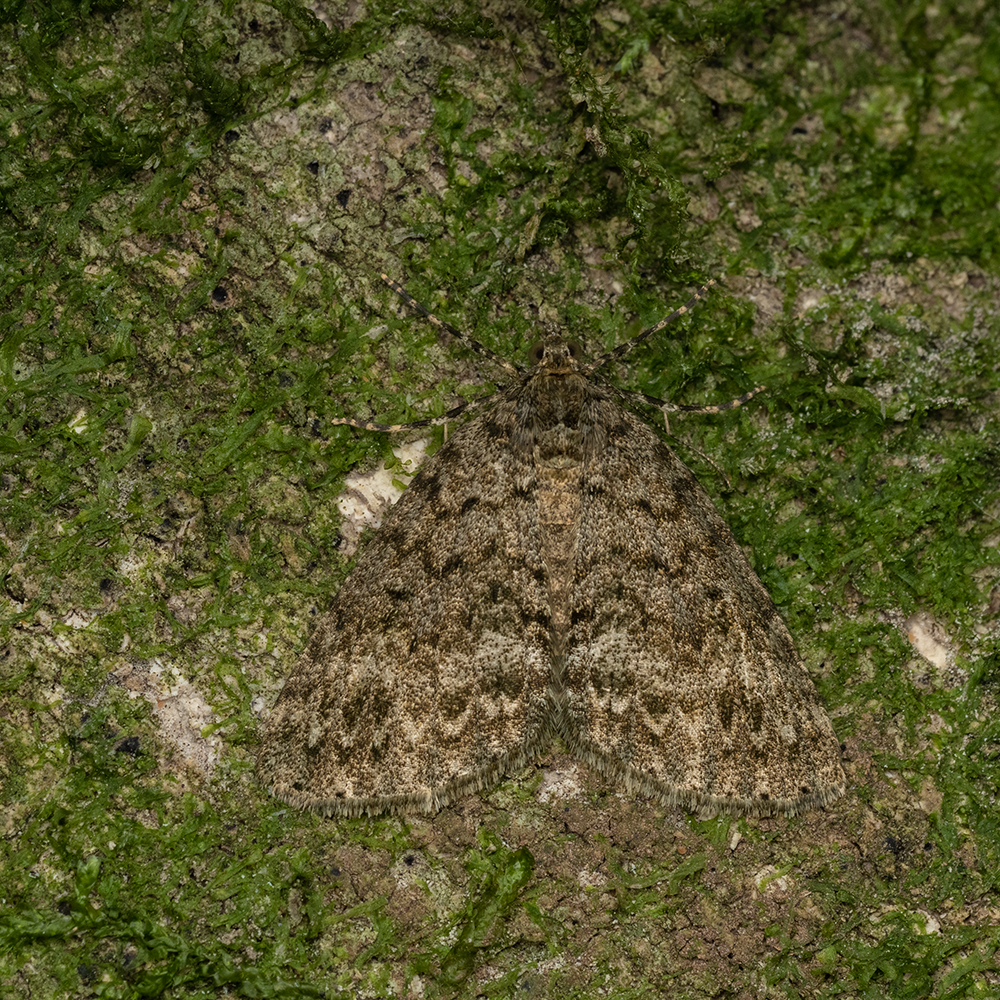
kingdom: Animalia
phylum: Arthropoda
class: Insecta
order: Lepidoptera
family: Geometridae
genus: Pseudocoremia
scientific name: Pseudocoremia indistincta
